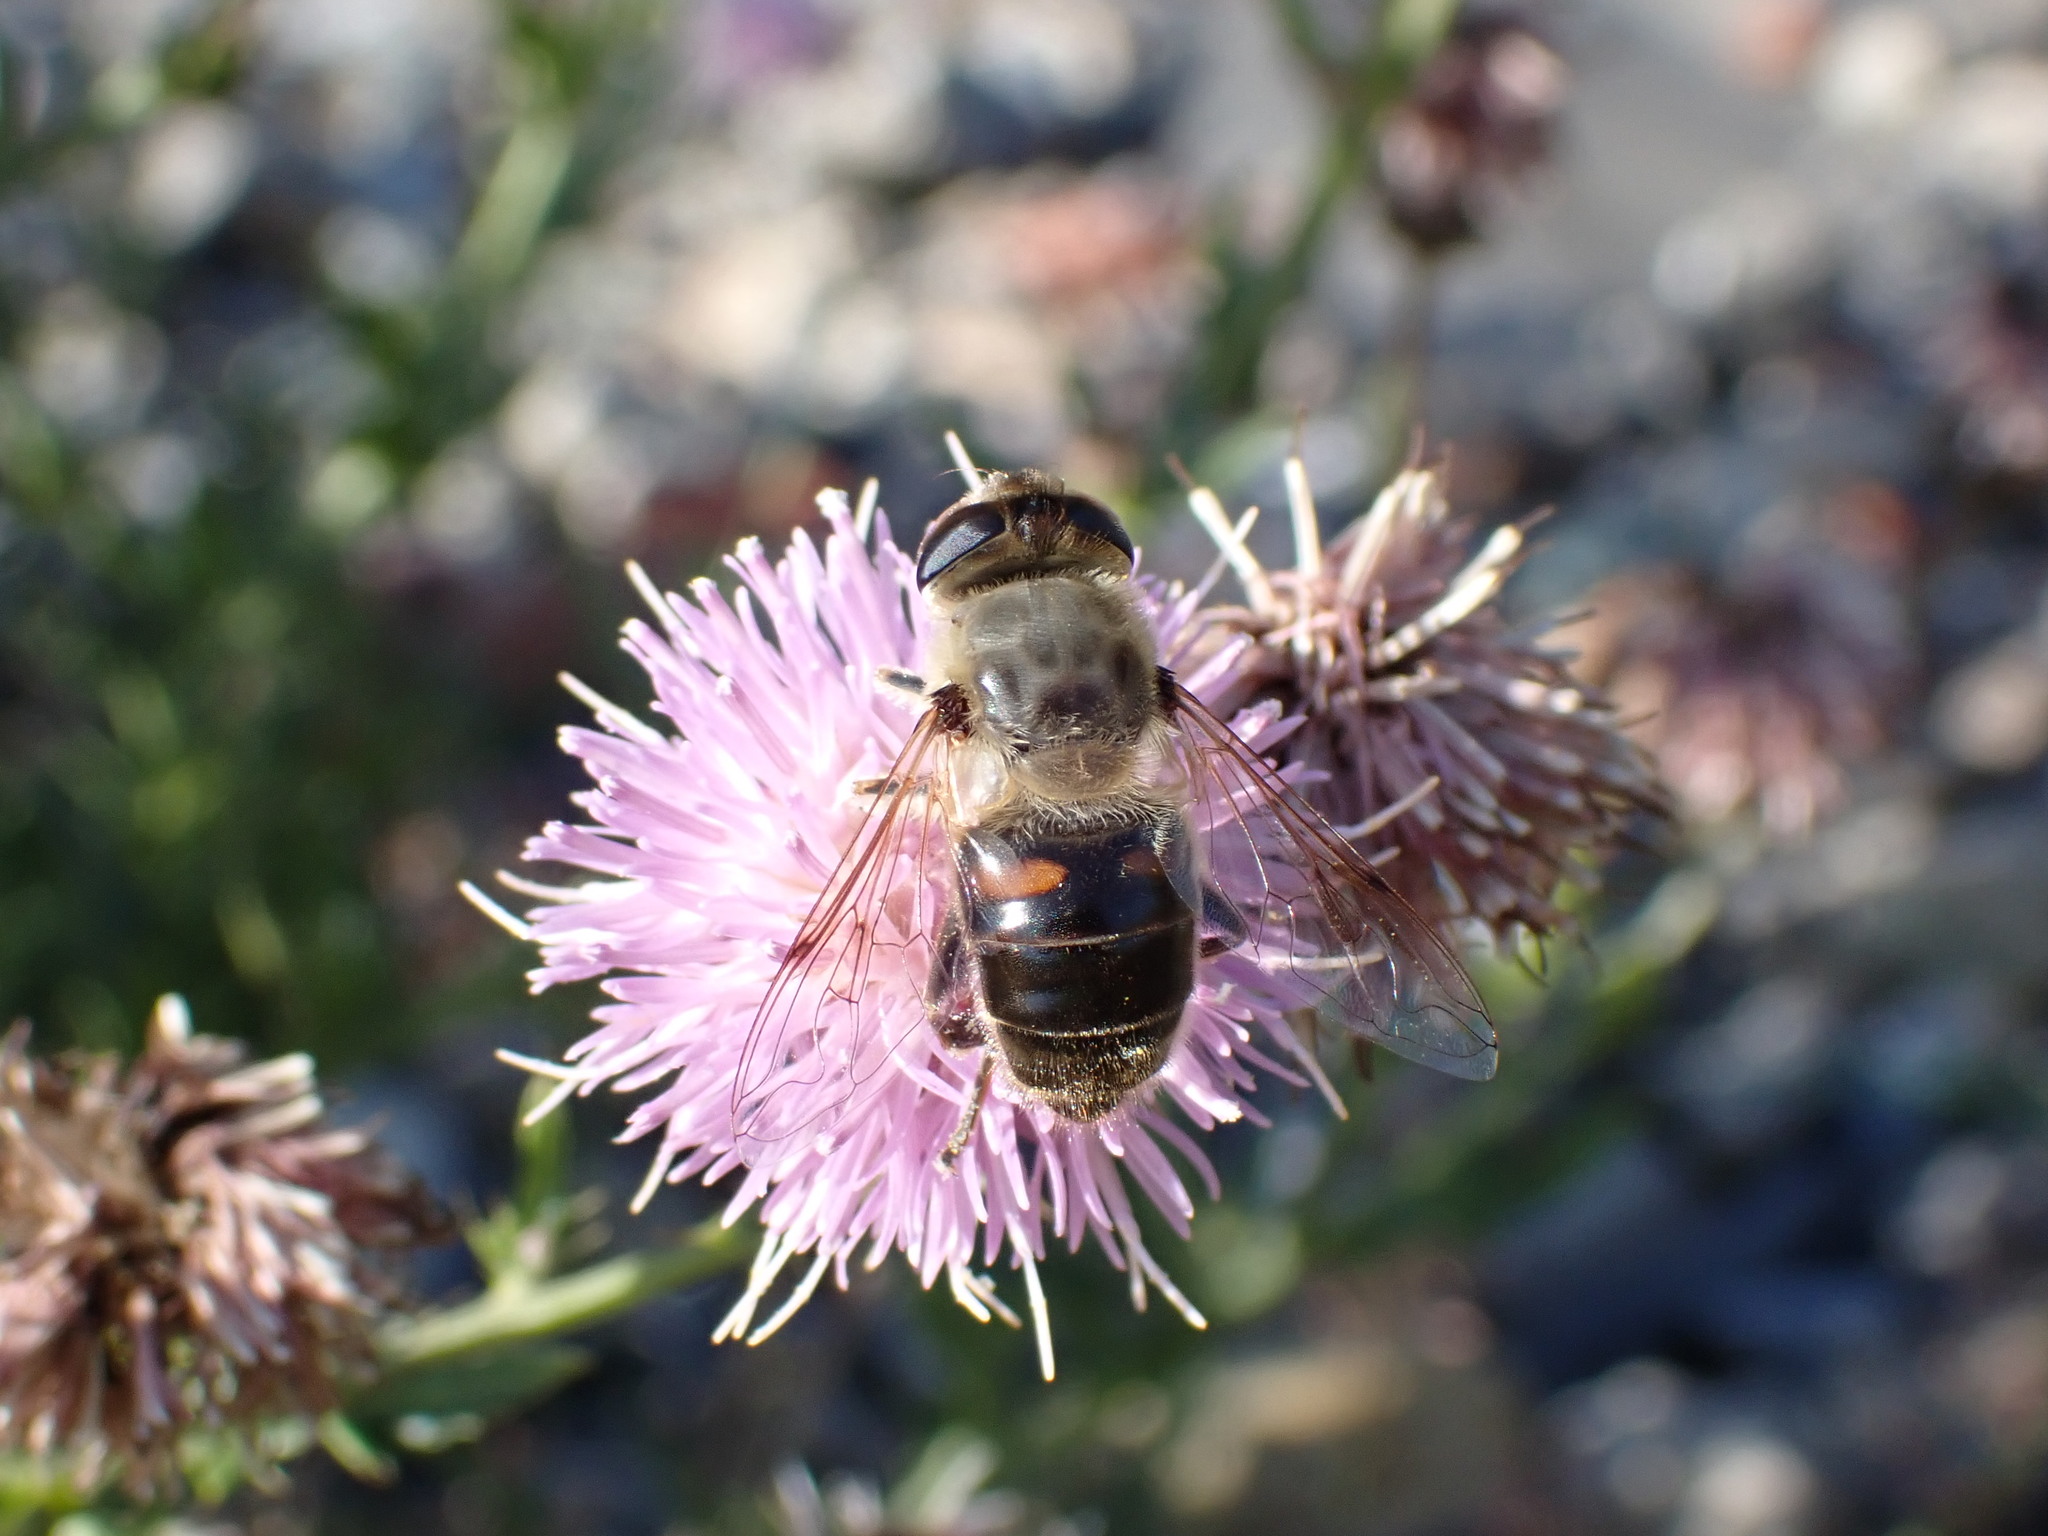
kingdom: Animalia
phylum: Arthropoda
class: Insecta
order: Diptera
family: Syrphidae
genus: Eristalis
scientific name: Eristalis tenax
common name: Drone fly
